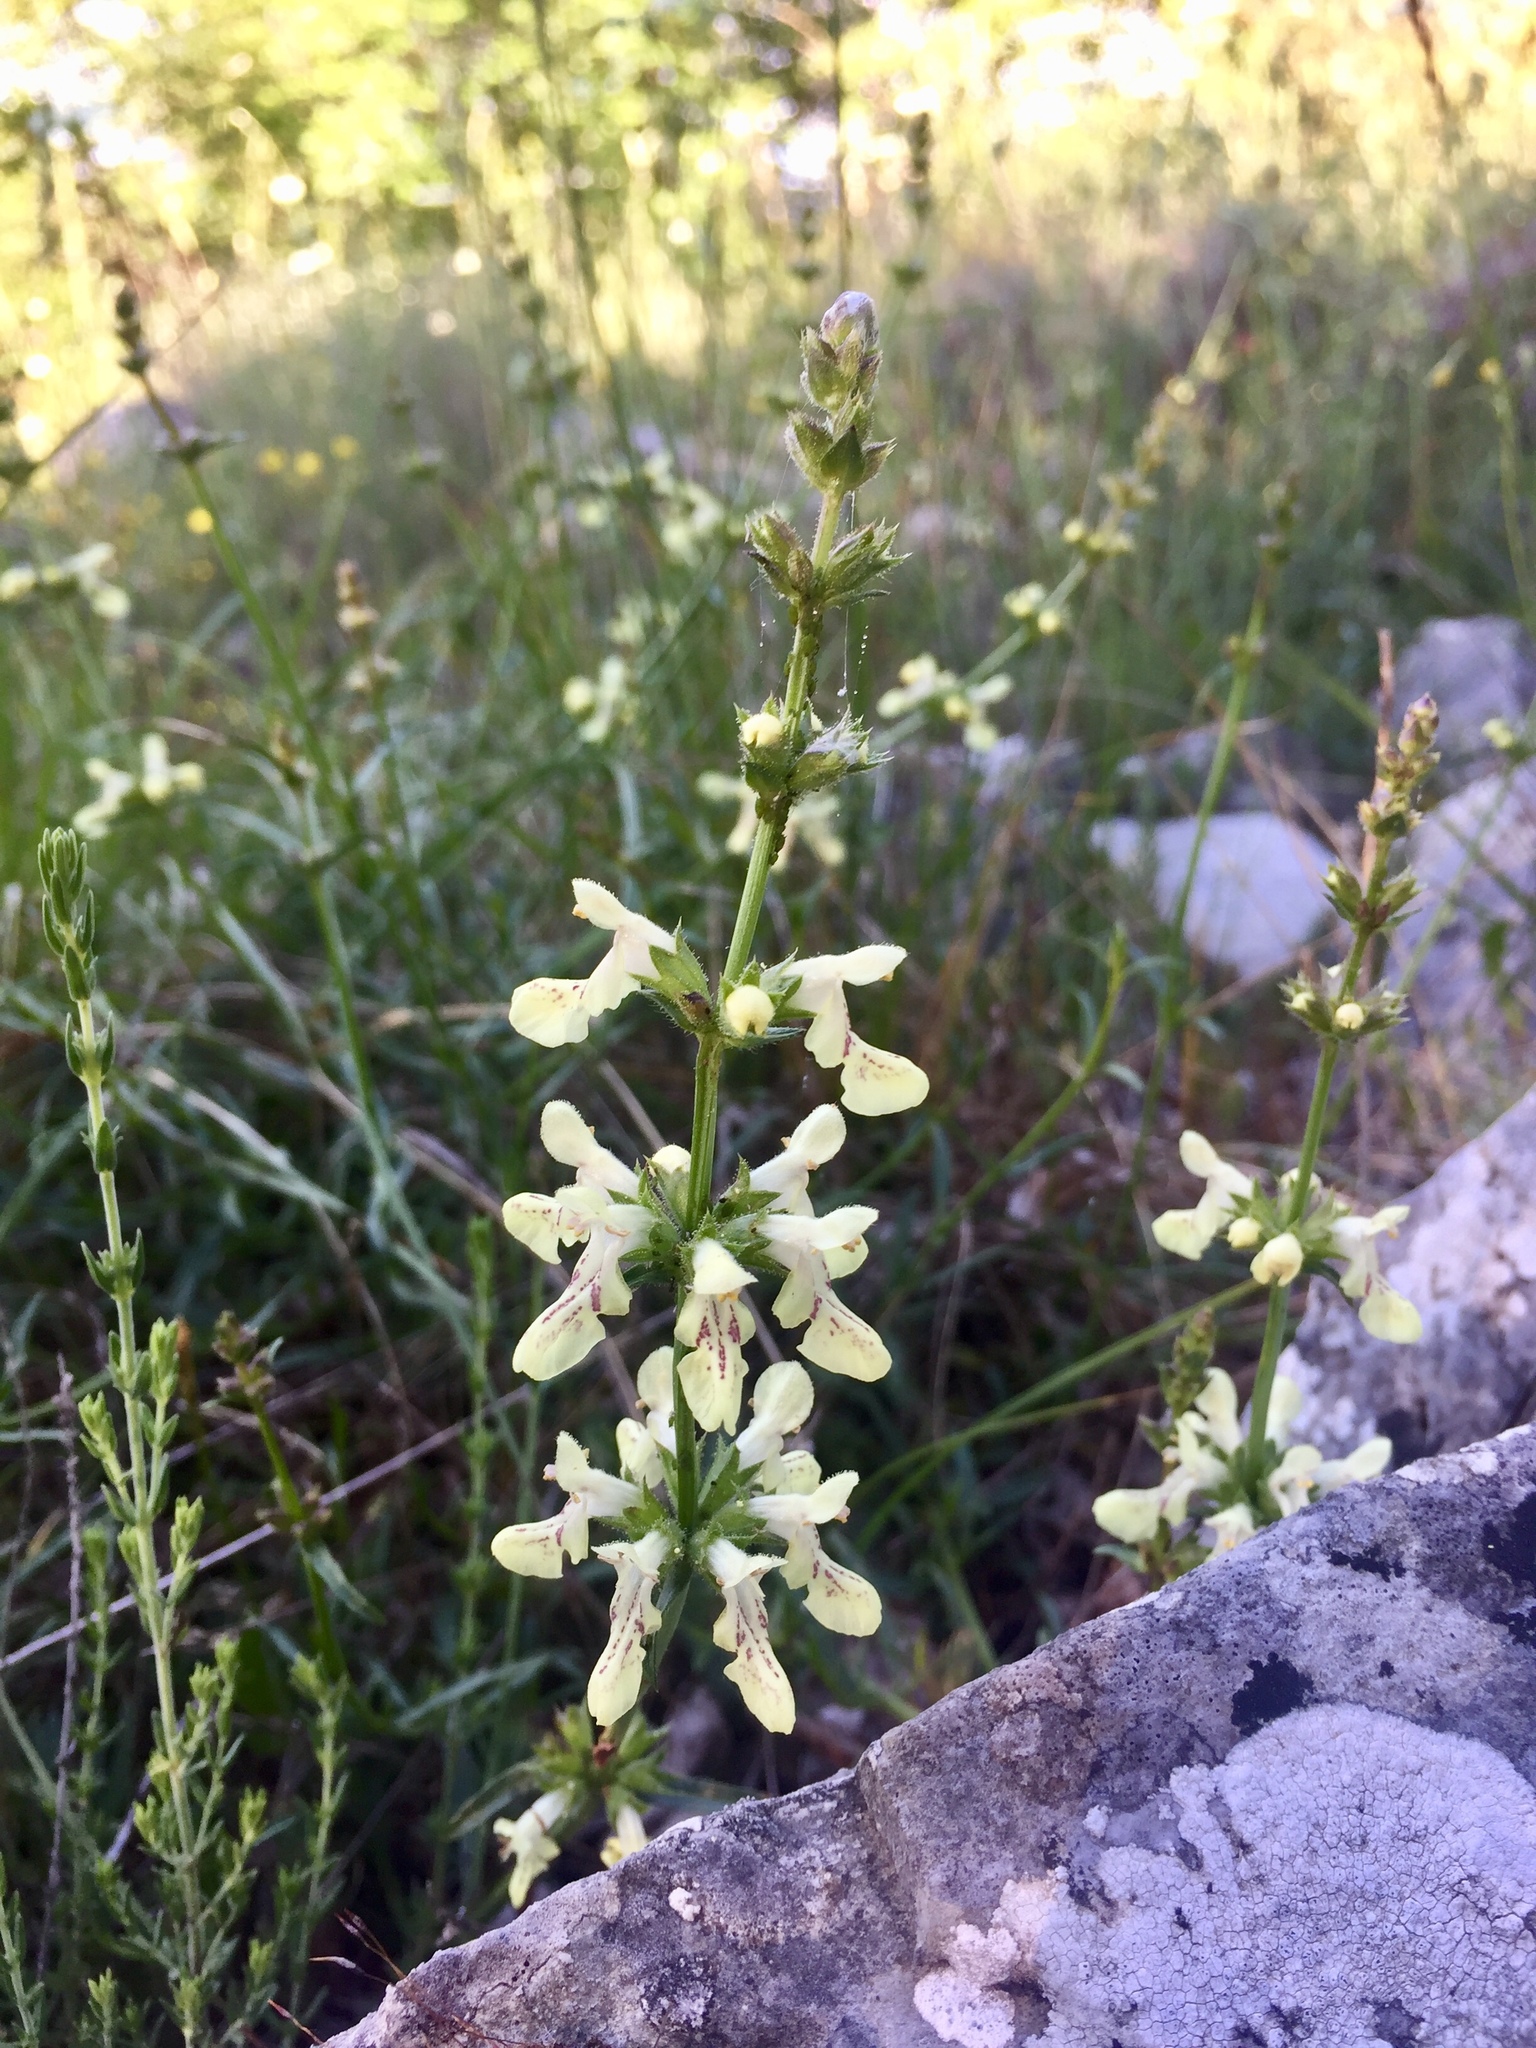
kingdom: Plantae
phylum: Tracheophyta
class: Magnoliopsida
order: Lamiales
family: Lamiaceae
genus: Stachys
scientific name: Stachys recta
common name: Perennial yellow-woundwort
